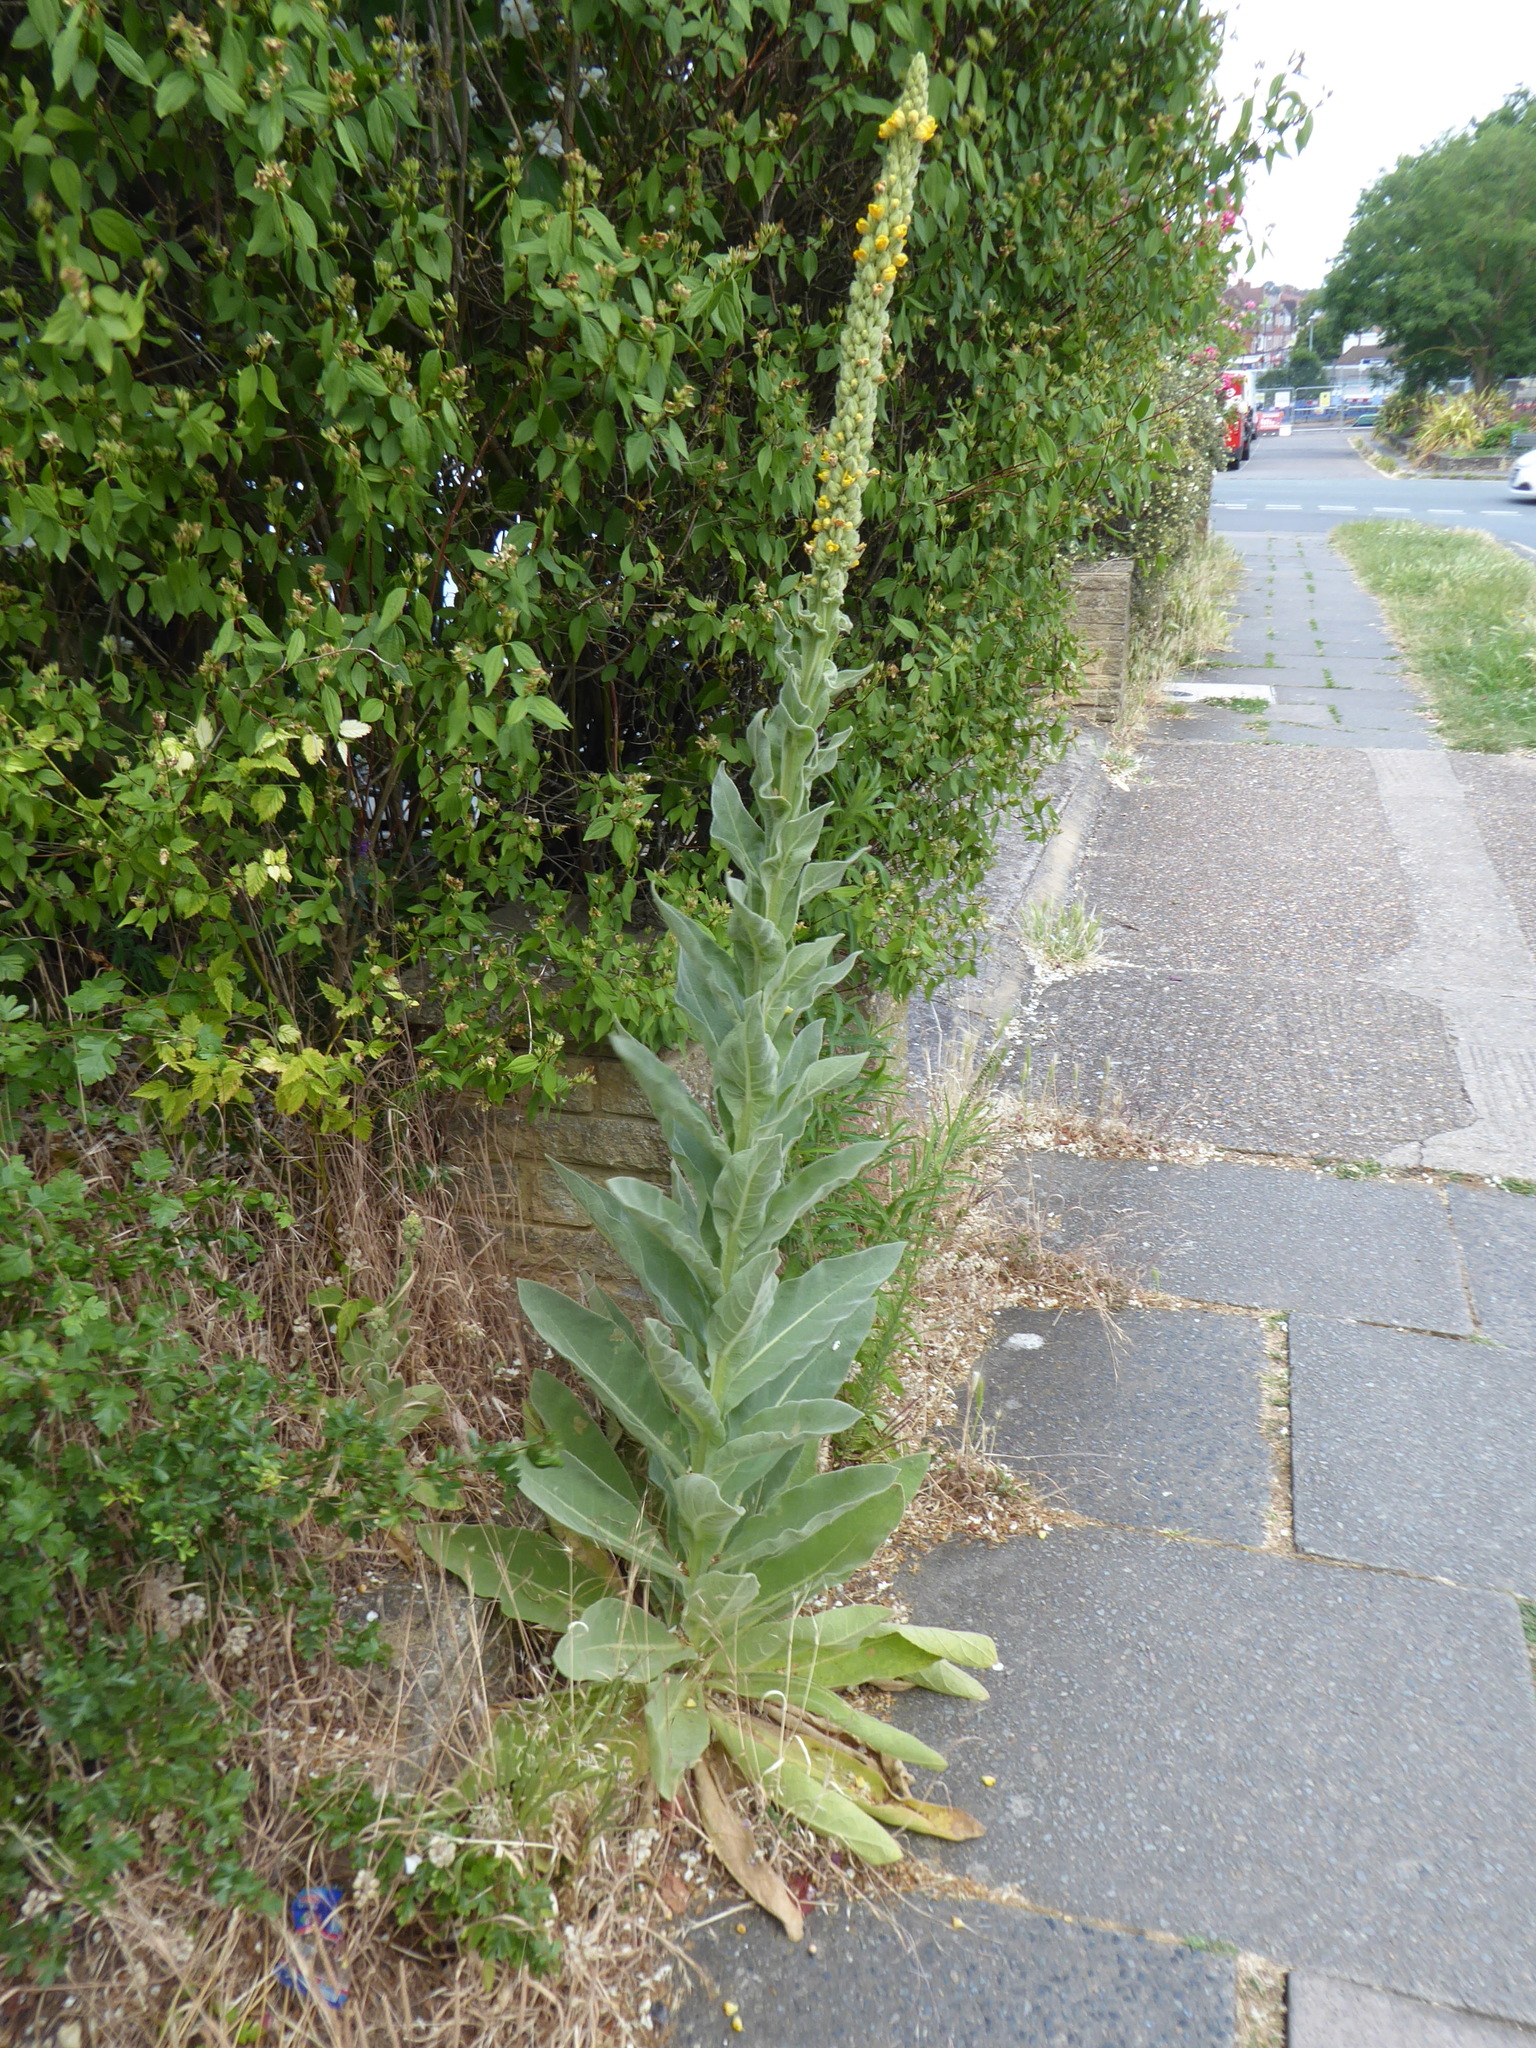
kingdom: Plantae
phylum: Tracheophyta
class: Magnoliopsida
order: Lamiales
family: Scrophulariaceae
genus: Verbascum
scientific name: Verbascum thapsus
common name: Common mullein
